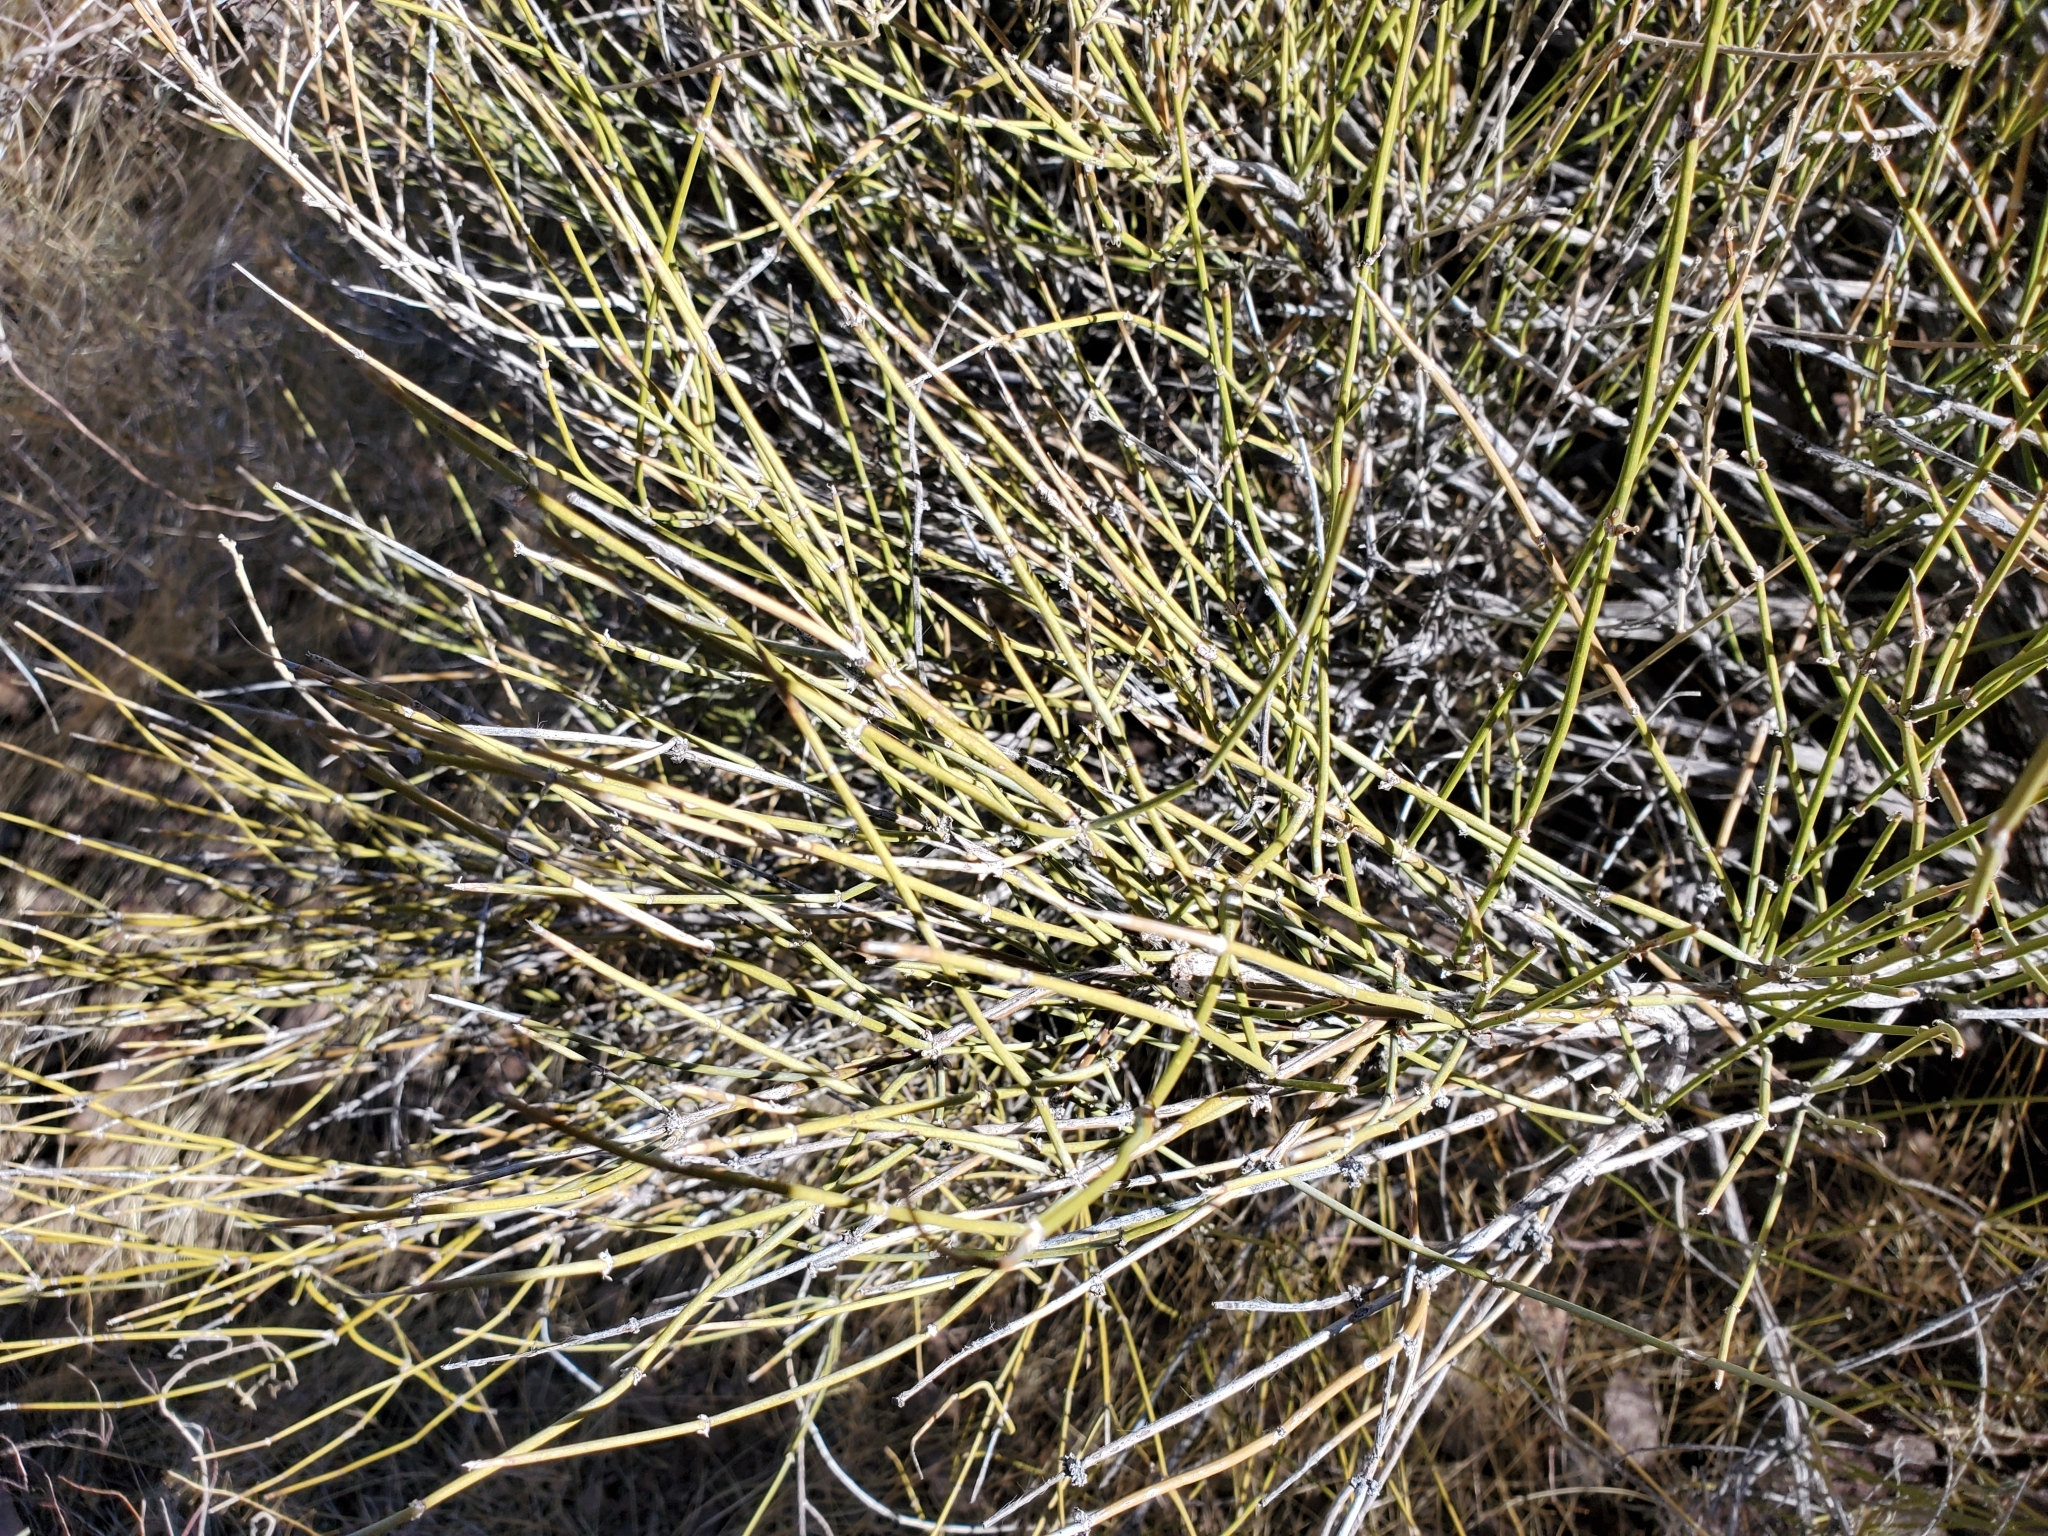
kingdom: Plantae
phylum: Tracheophyta
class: Gnetopsida
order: Ephedrales
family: Ephedraceae
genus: Ephedra
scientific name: Ephedra
